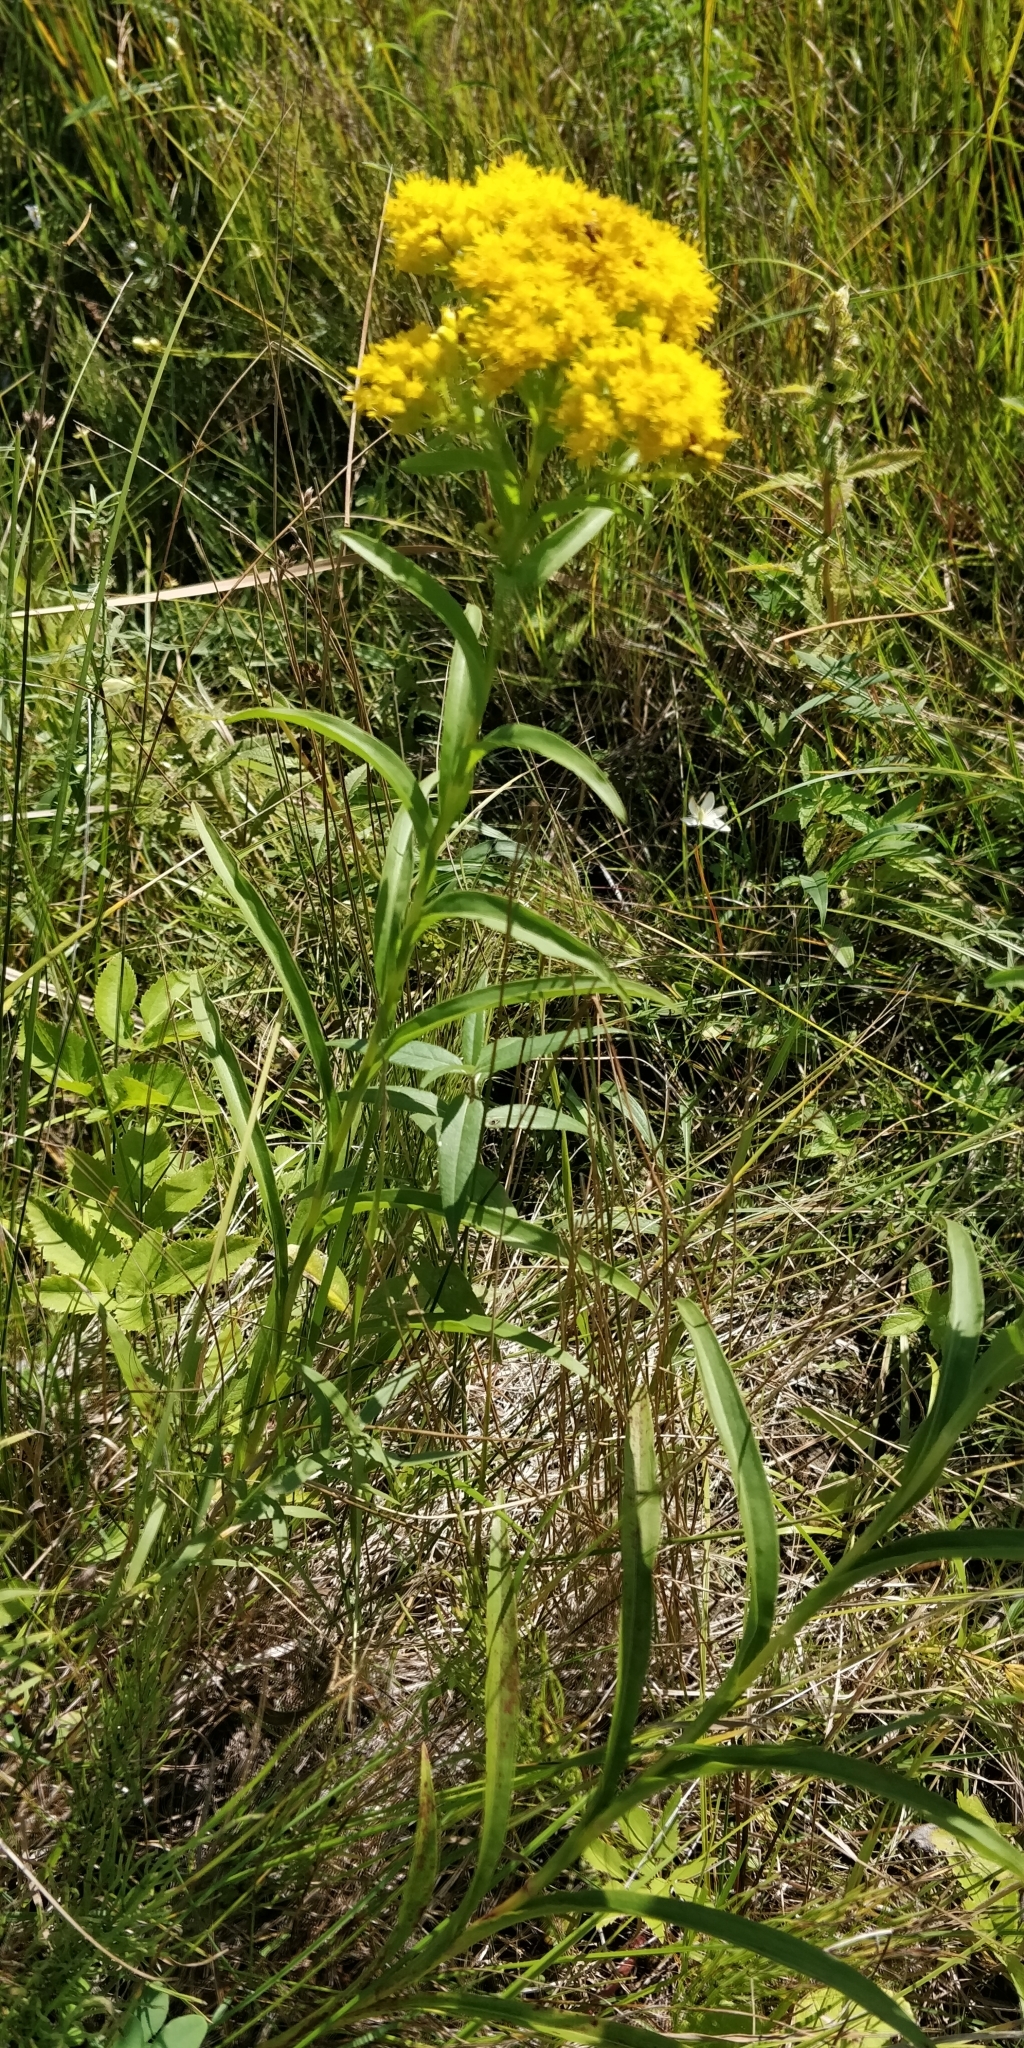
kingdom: Plantae
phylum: Tracheophyta
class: Magnoliopsida
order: Asterales
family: Asteraceae
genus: Solidago
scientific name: Solidago riddellii
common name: Riddell's goldenrod
